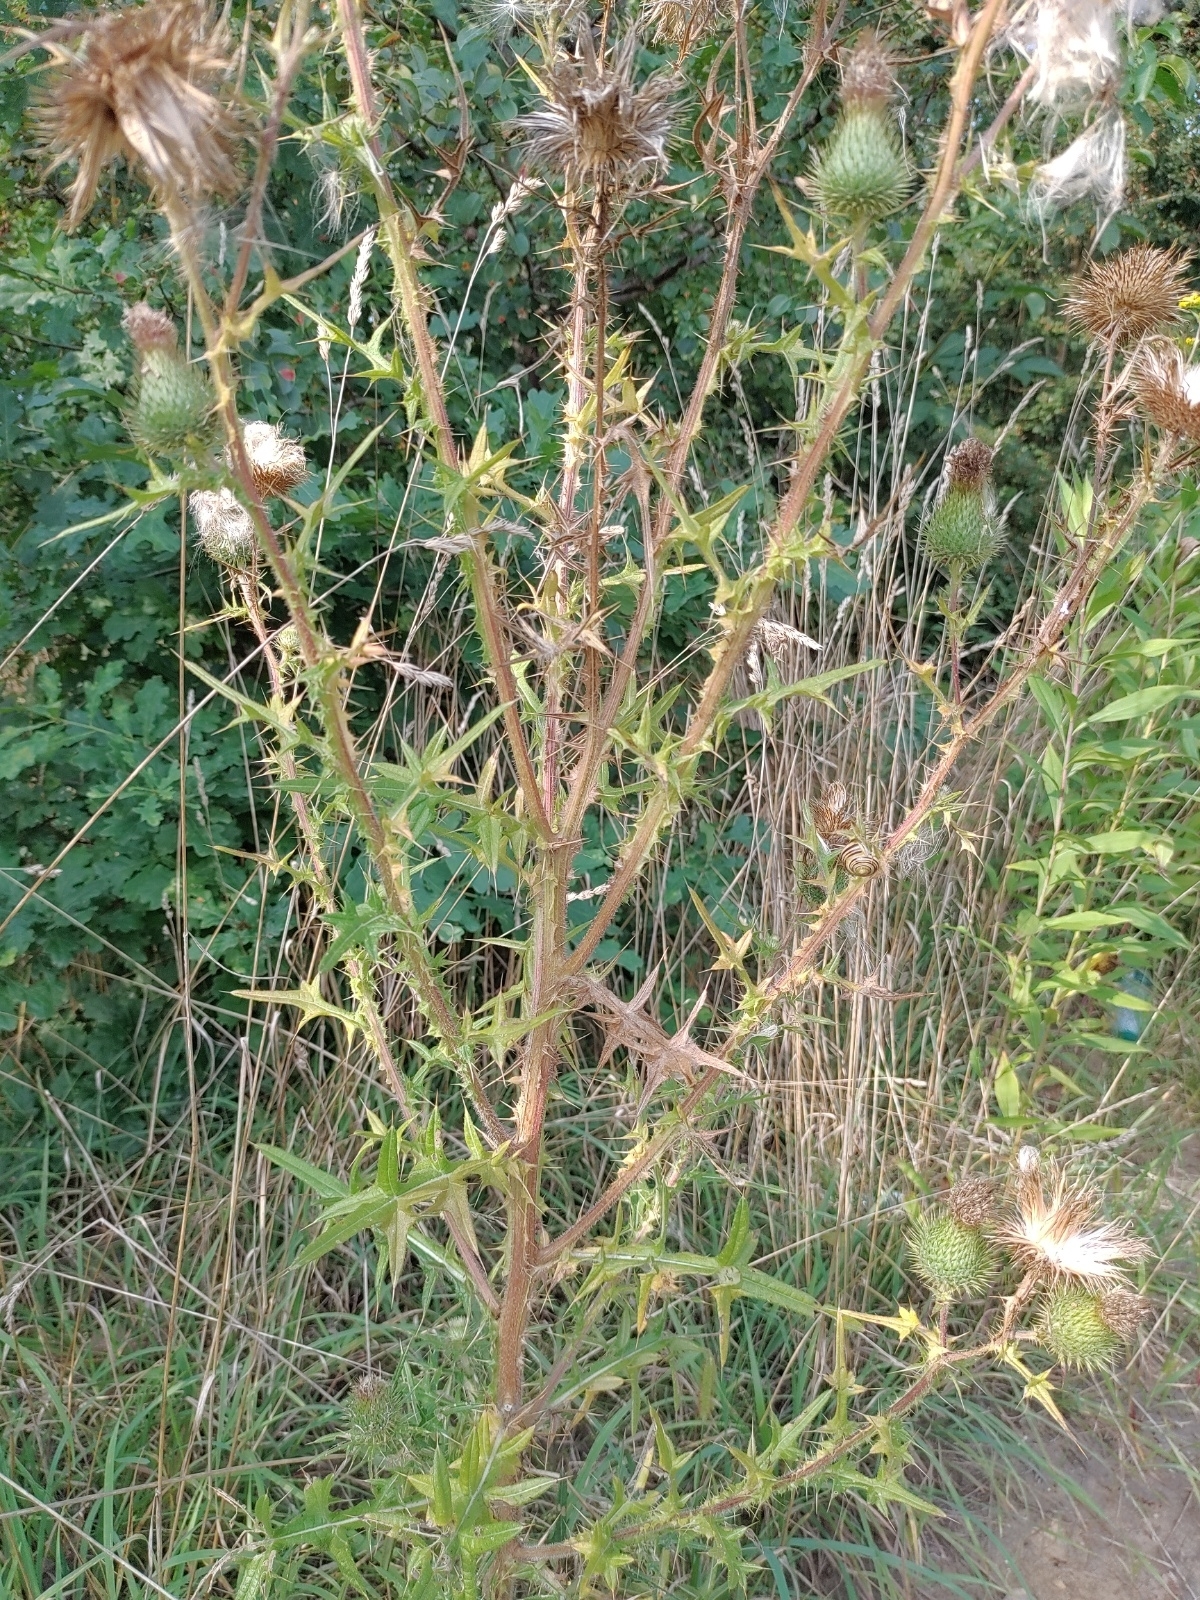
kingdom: Plantae
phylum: Tracheophyta
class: Magnoliopsida
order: Asterales
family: Asteraceae
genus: Cirsium
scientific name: Cirsium vulgare
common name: Bull thistle
